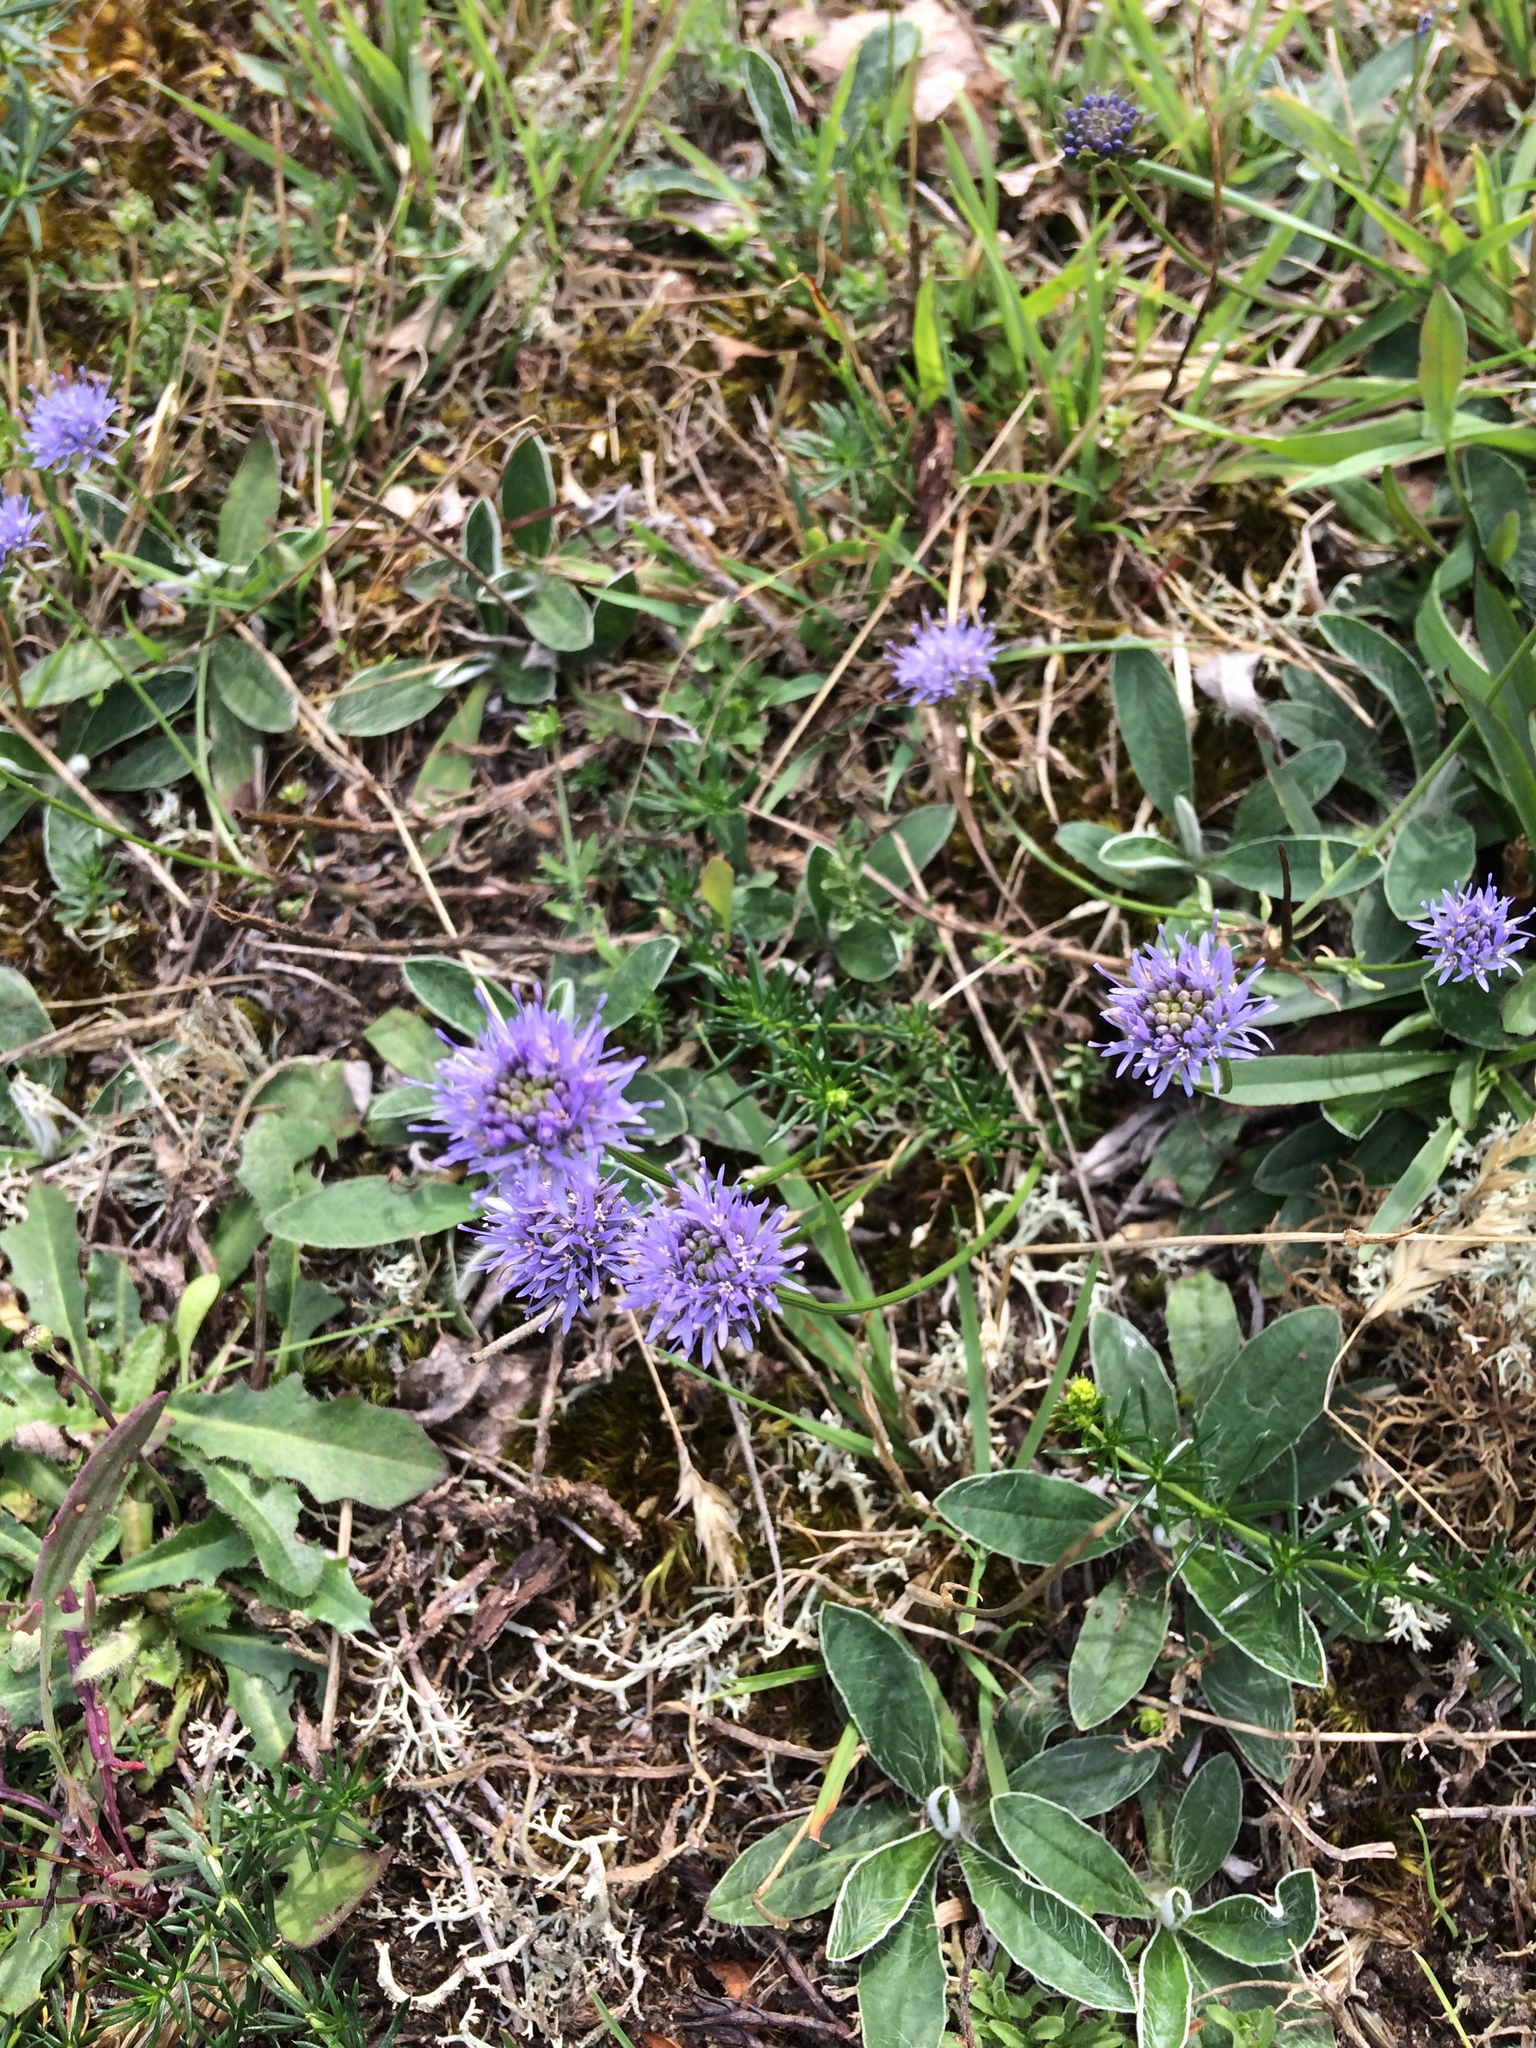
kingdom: Plantae
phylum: Tracheophyta
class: Magnoliopsida
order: Asterales
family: Campanulaceae
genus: Jasione
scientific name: Jasione montana
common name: Sheep's-bit
